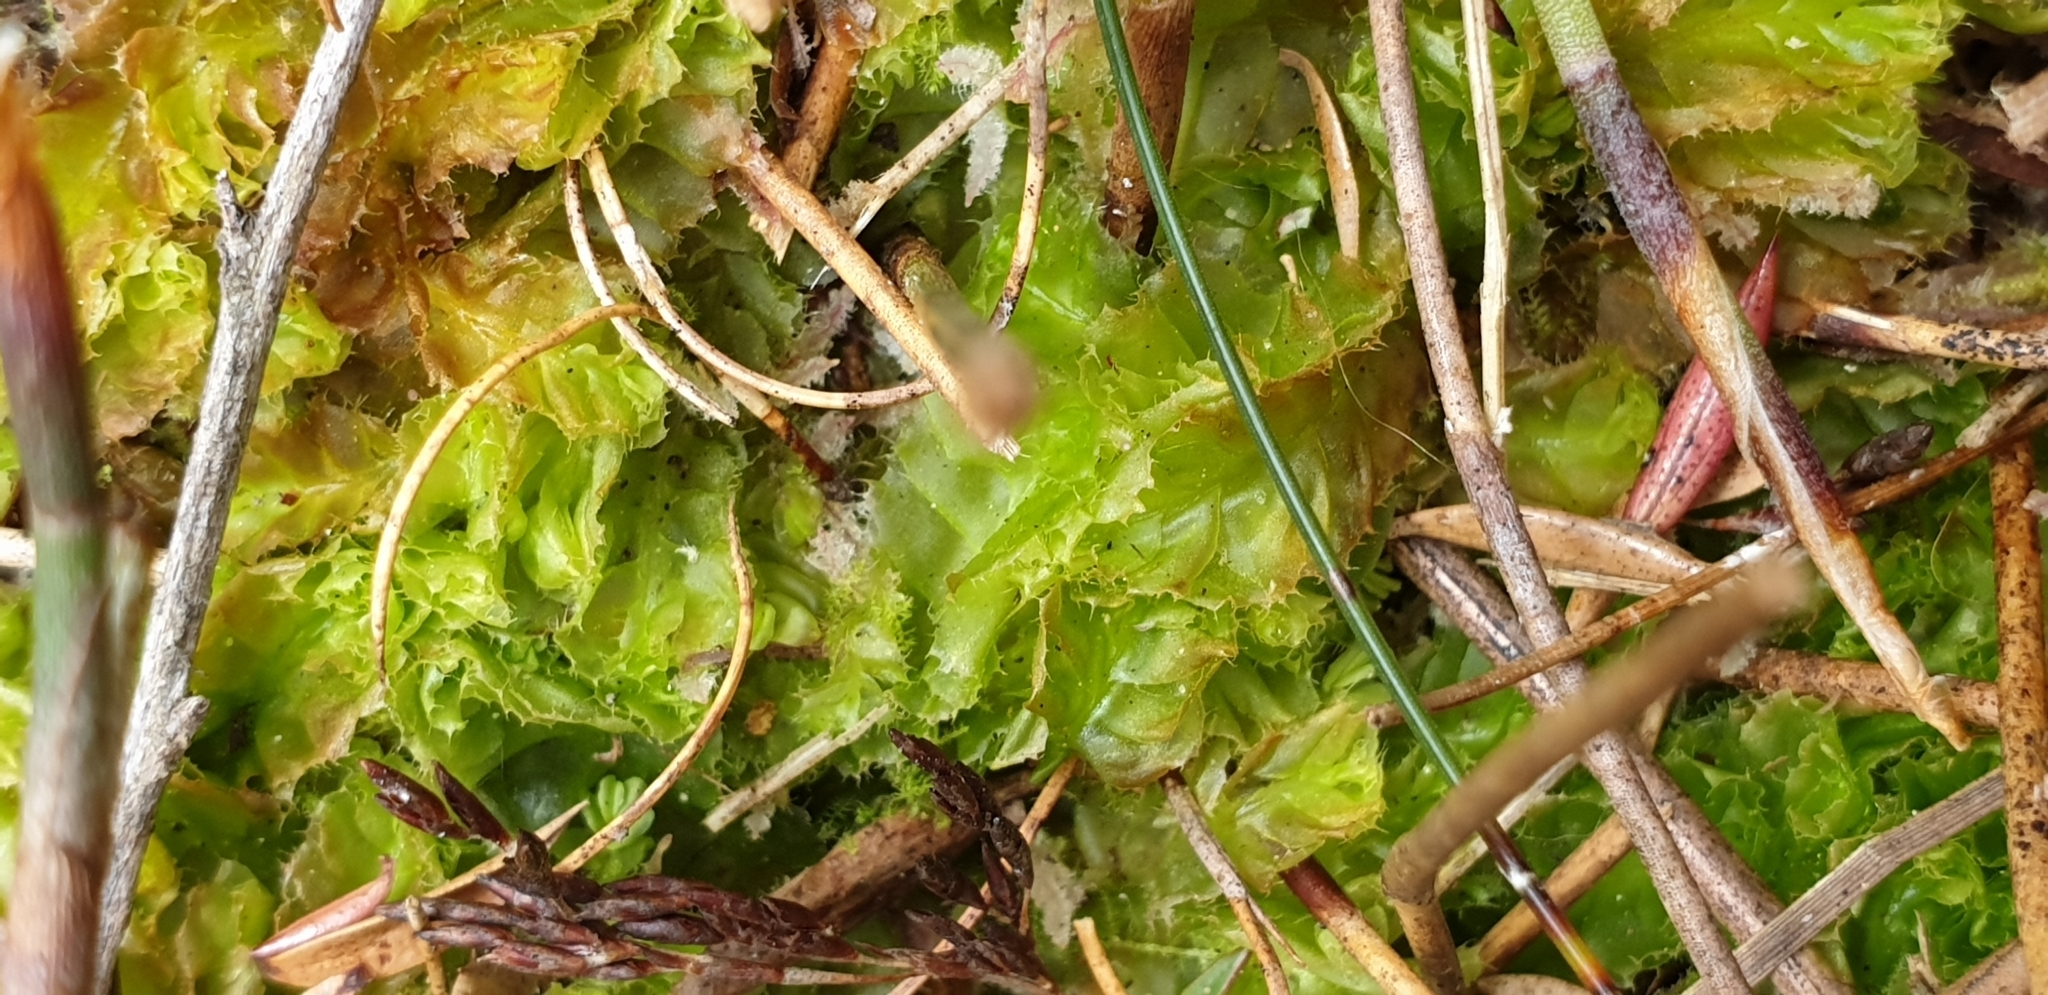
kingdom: Plantae
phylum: Marchantiophyta
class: Jungermanniopsida
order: Jungermanniales
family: Acrobolbaceae
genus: Goebelobryum
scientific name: Goebelobryum unguiculatum
